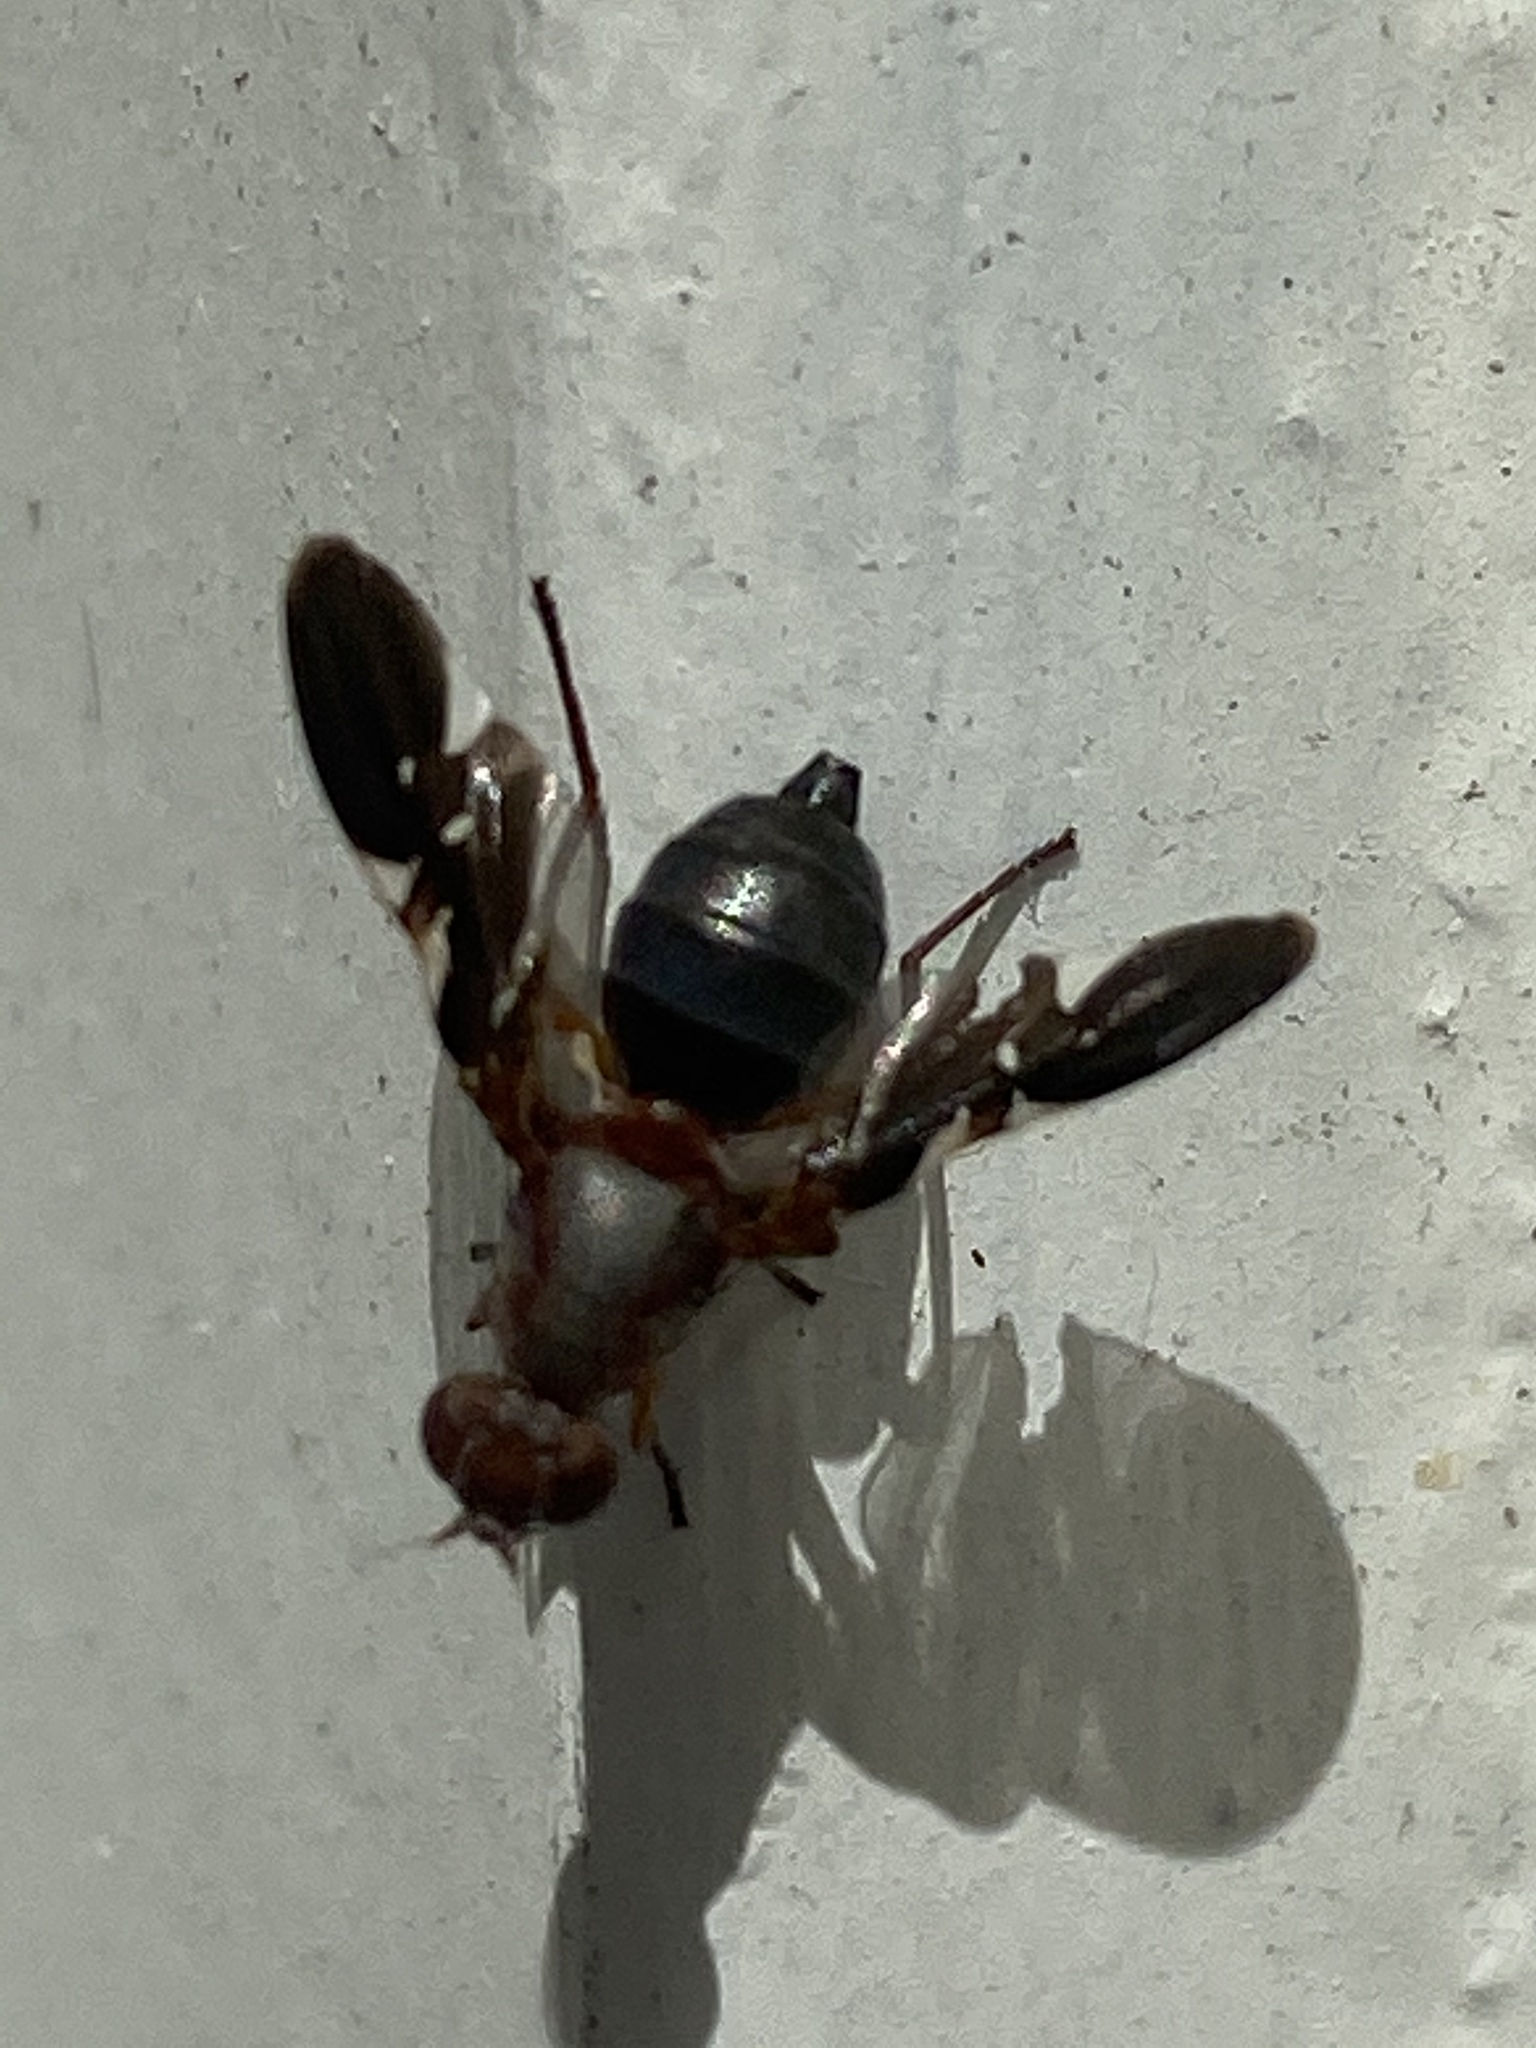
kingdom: Animalia
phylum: Arthropoda
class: Insecta
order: Diptera
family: Ulidiidae
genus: Delphinia
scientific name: Delphinia picta
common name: Common picture-winged fly
